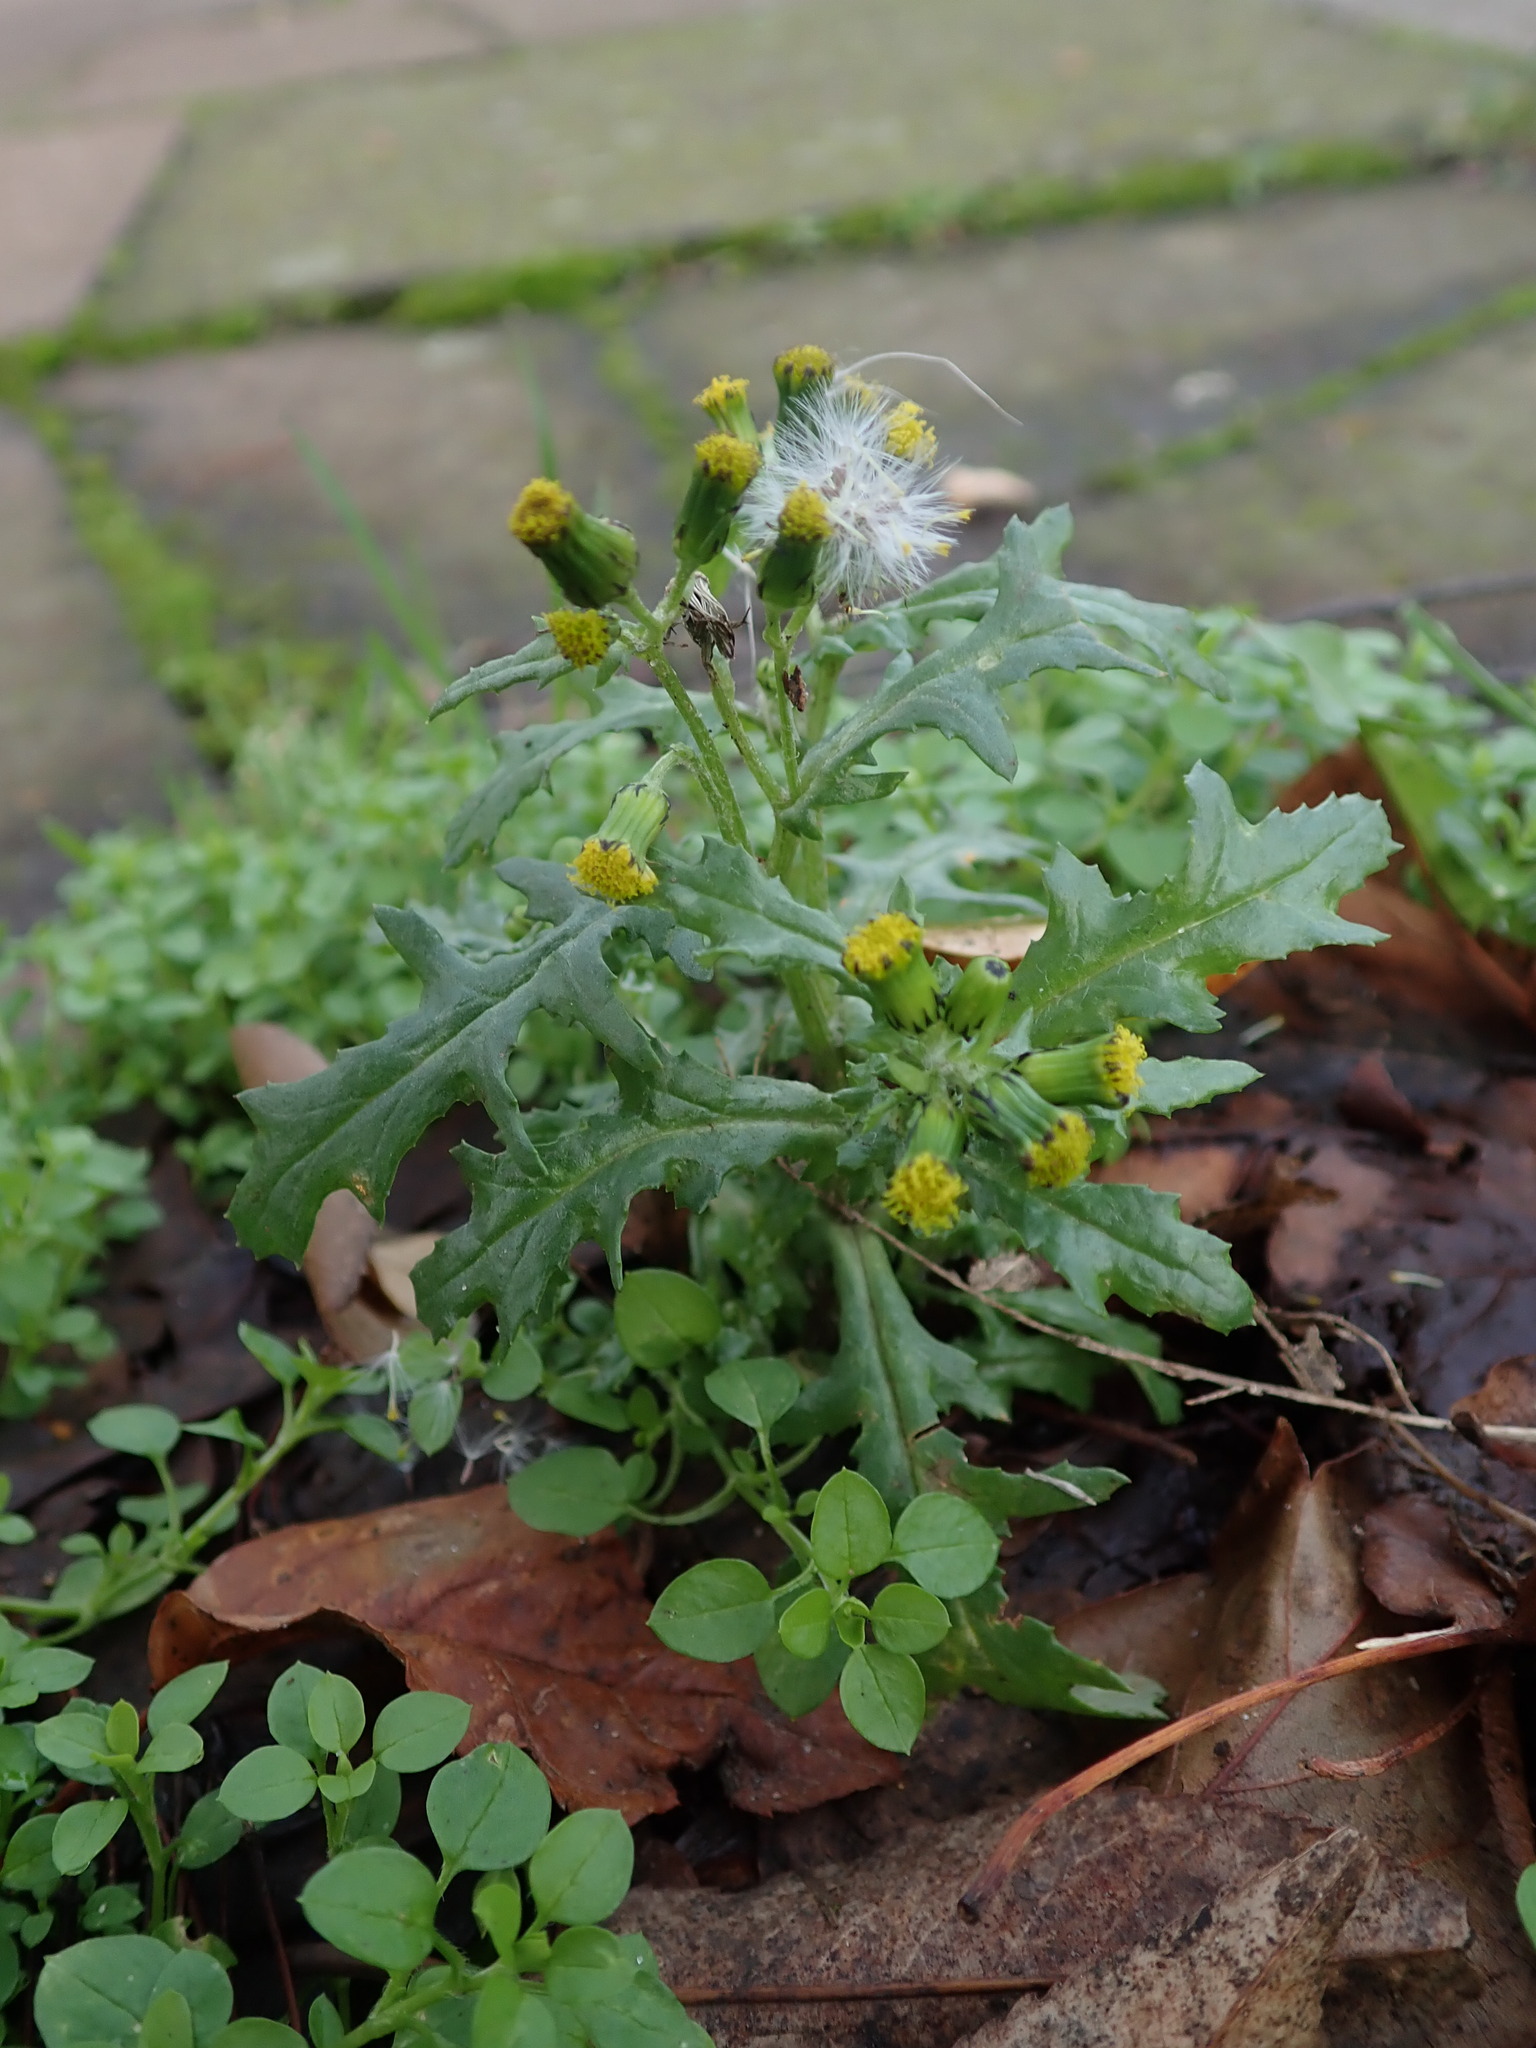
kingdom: Plantae
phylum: Tracheophyta
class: Magnoliopsida
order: Asterales
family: Asteraceae
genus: Senecio
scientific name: Senecio vulgaris
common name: Old-man-in-the-spring
